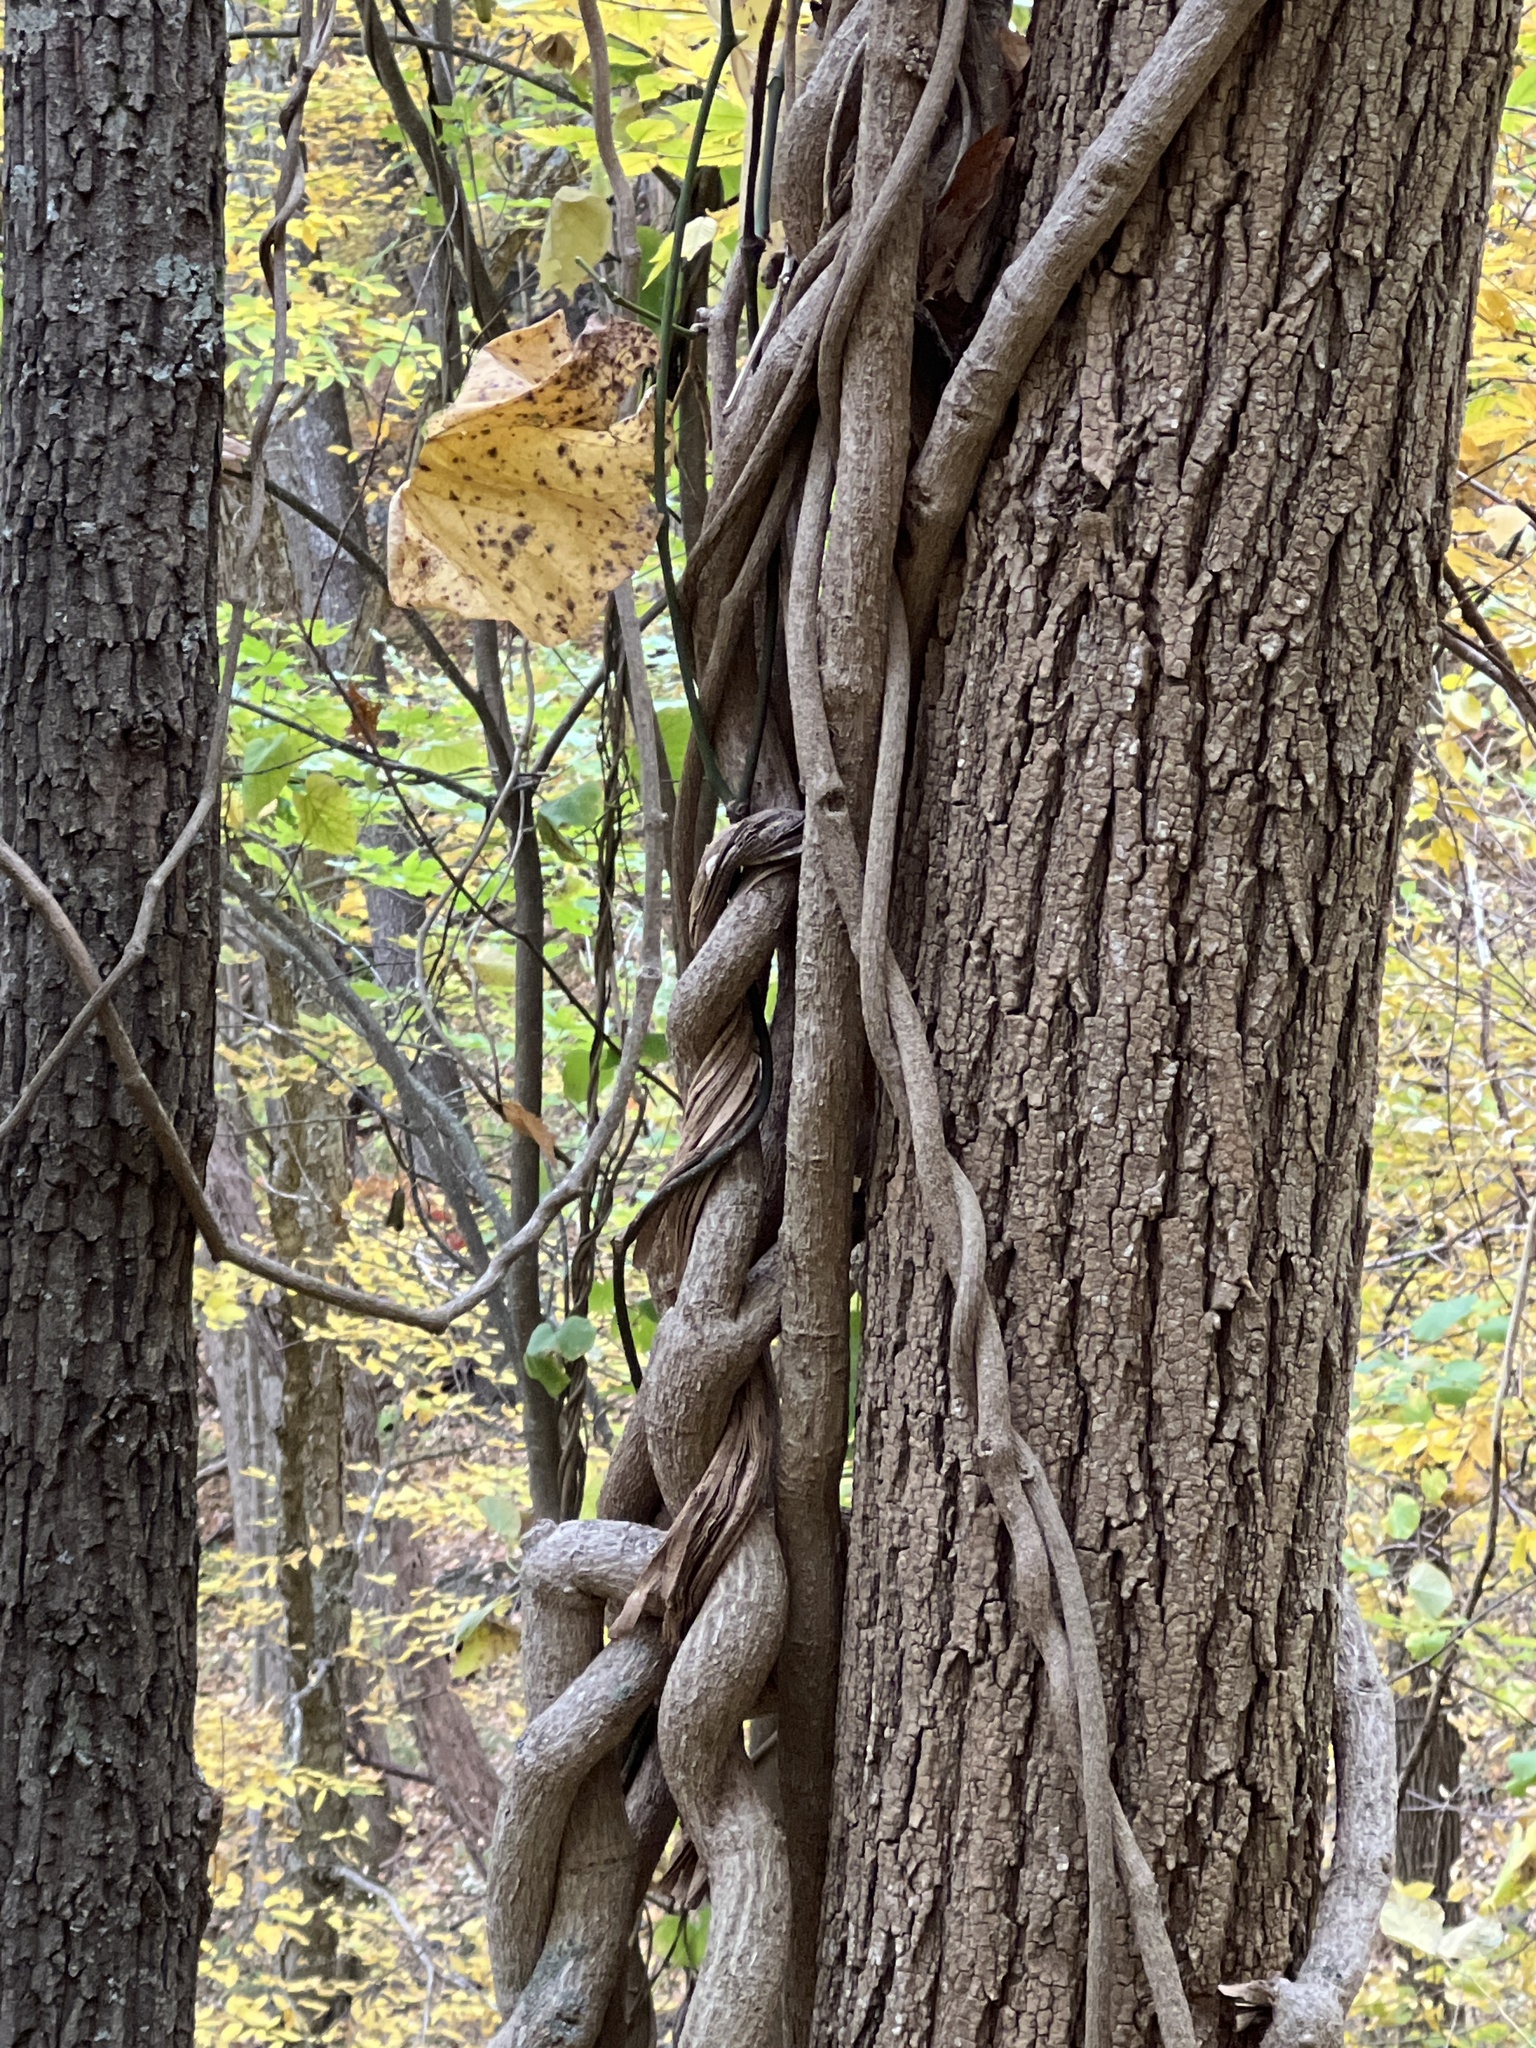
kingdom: Plantae
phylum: Tracheophyta
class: Magnoliopsida
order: Piperales
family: Aristolochiaceae
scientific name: Aristolochiaceae
